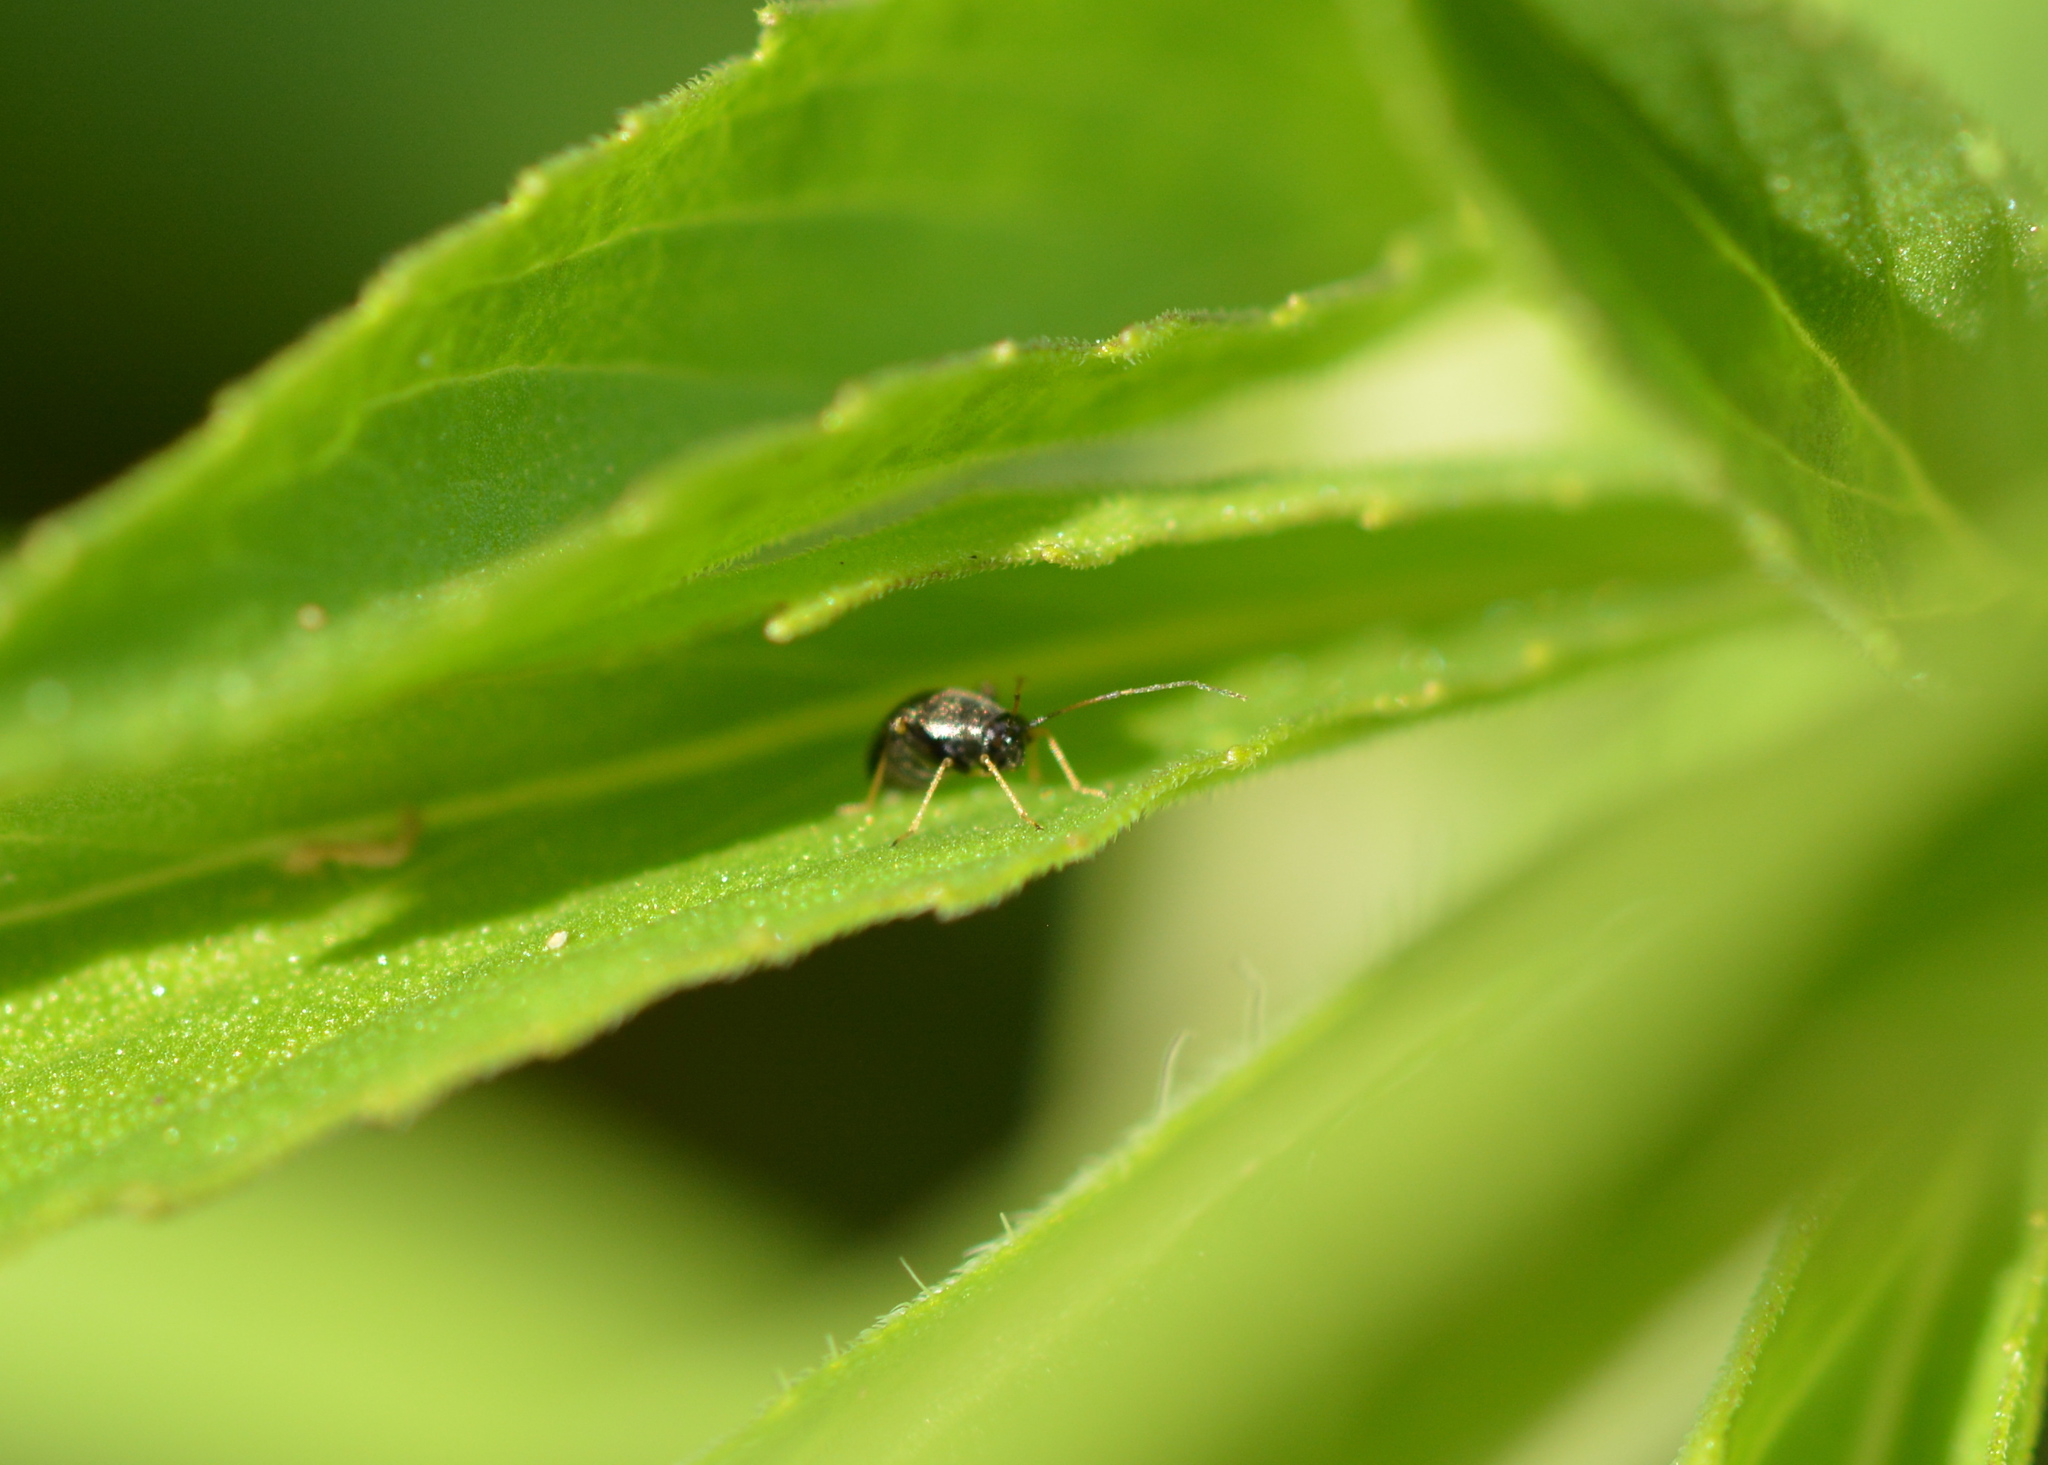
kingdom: Animalia
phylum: Arthropoda
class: Insecta
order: Hemiptera
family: Miridae
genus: Microtechnites
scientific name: Microtechnites bractatus
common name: Garden fleahopper
